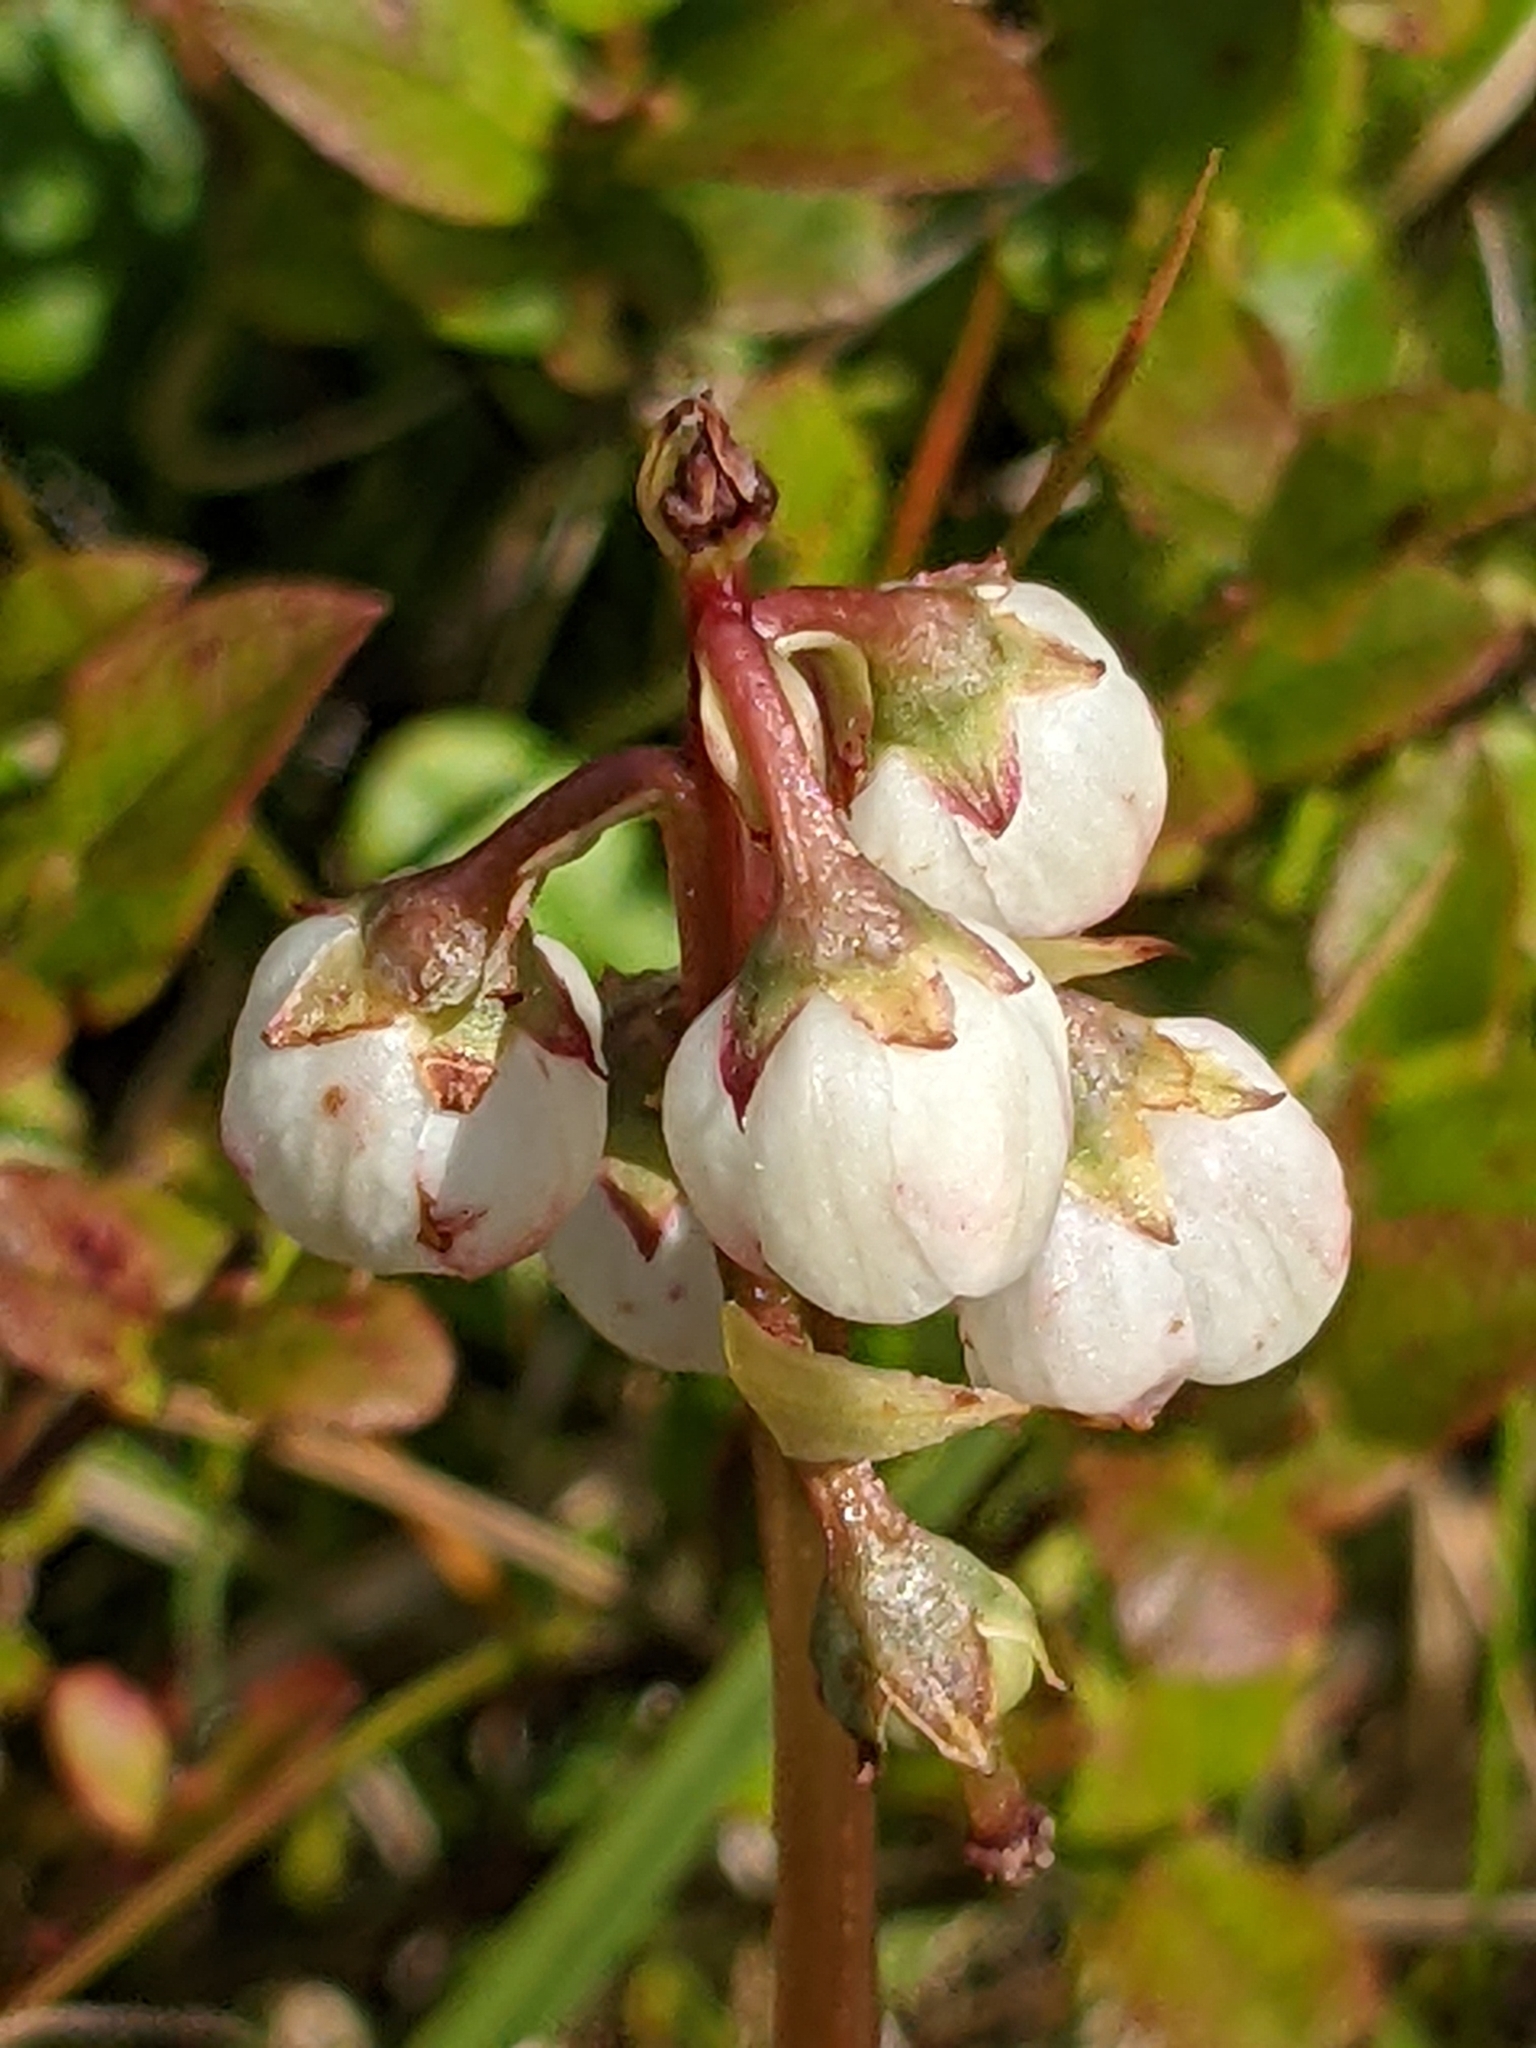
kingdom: Plantae
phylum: Tracheophyta
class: Magnoliopsida
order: Ericales
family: Ericaceae
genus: Pyrola
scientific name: Pyrola media
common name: Intermediate wintergreen
